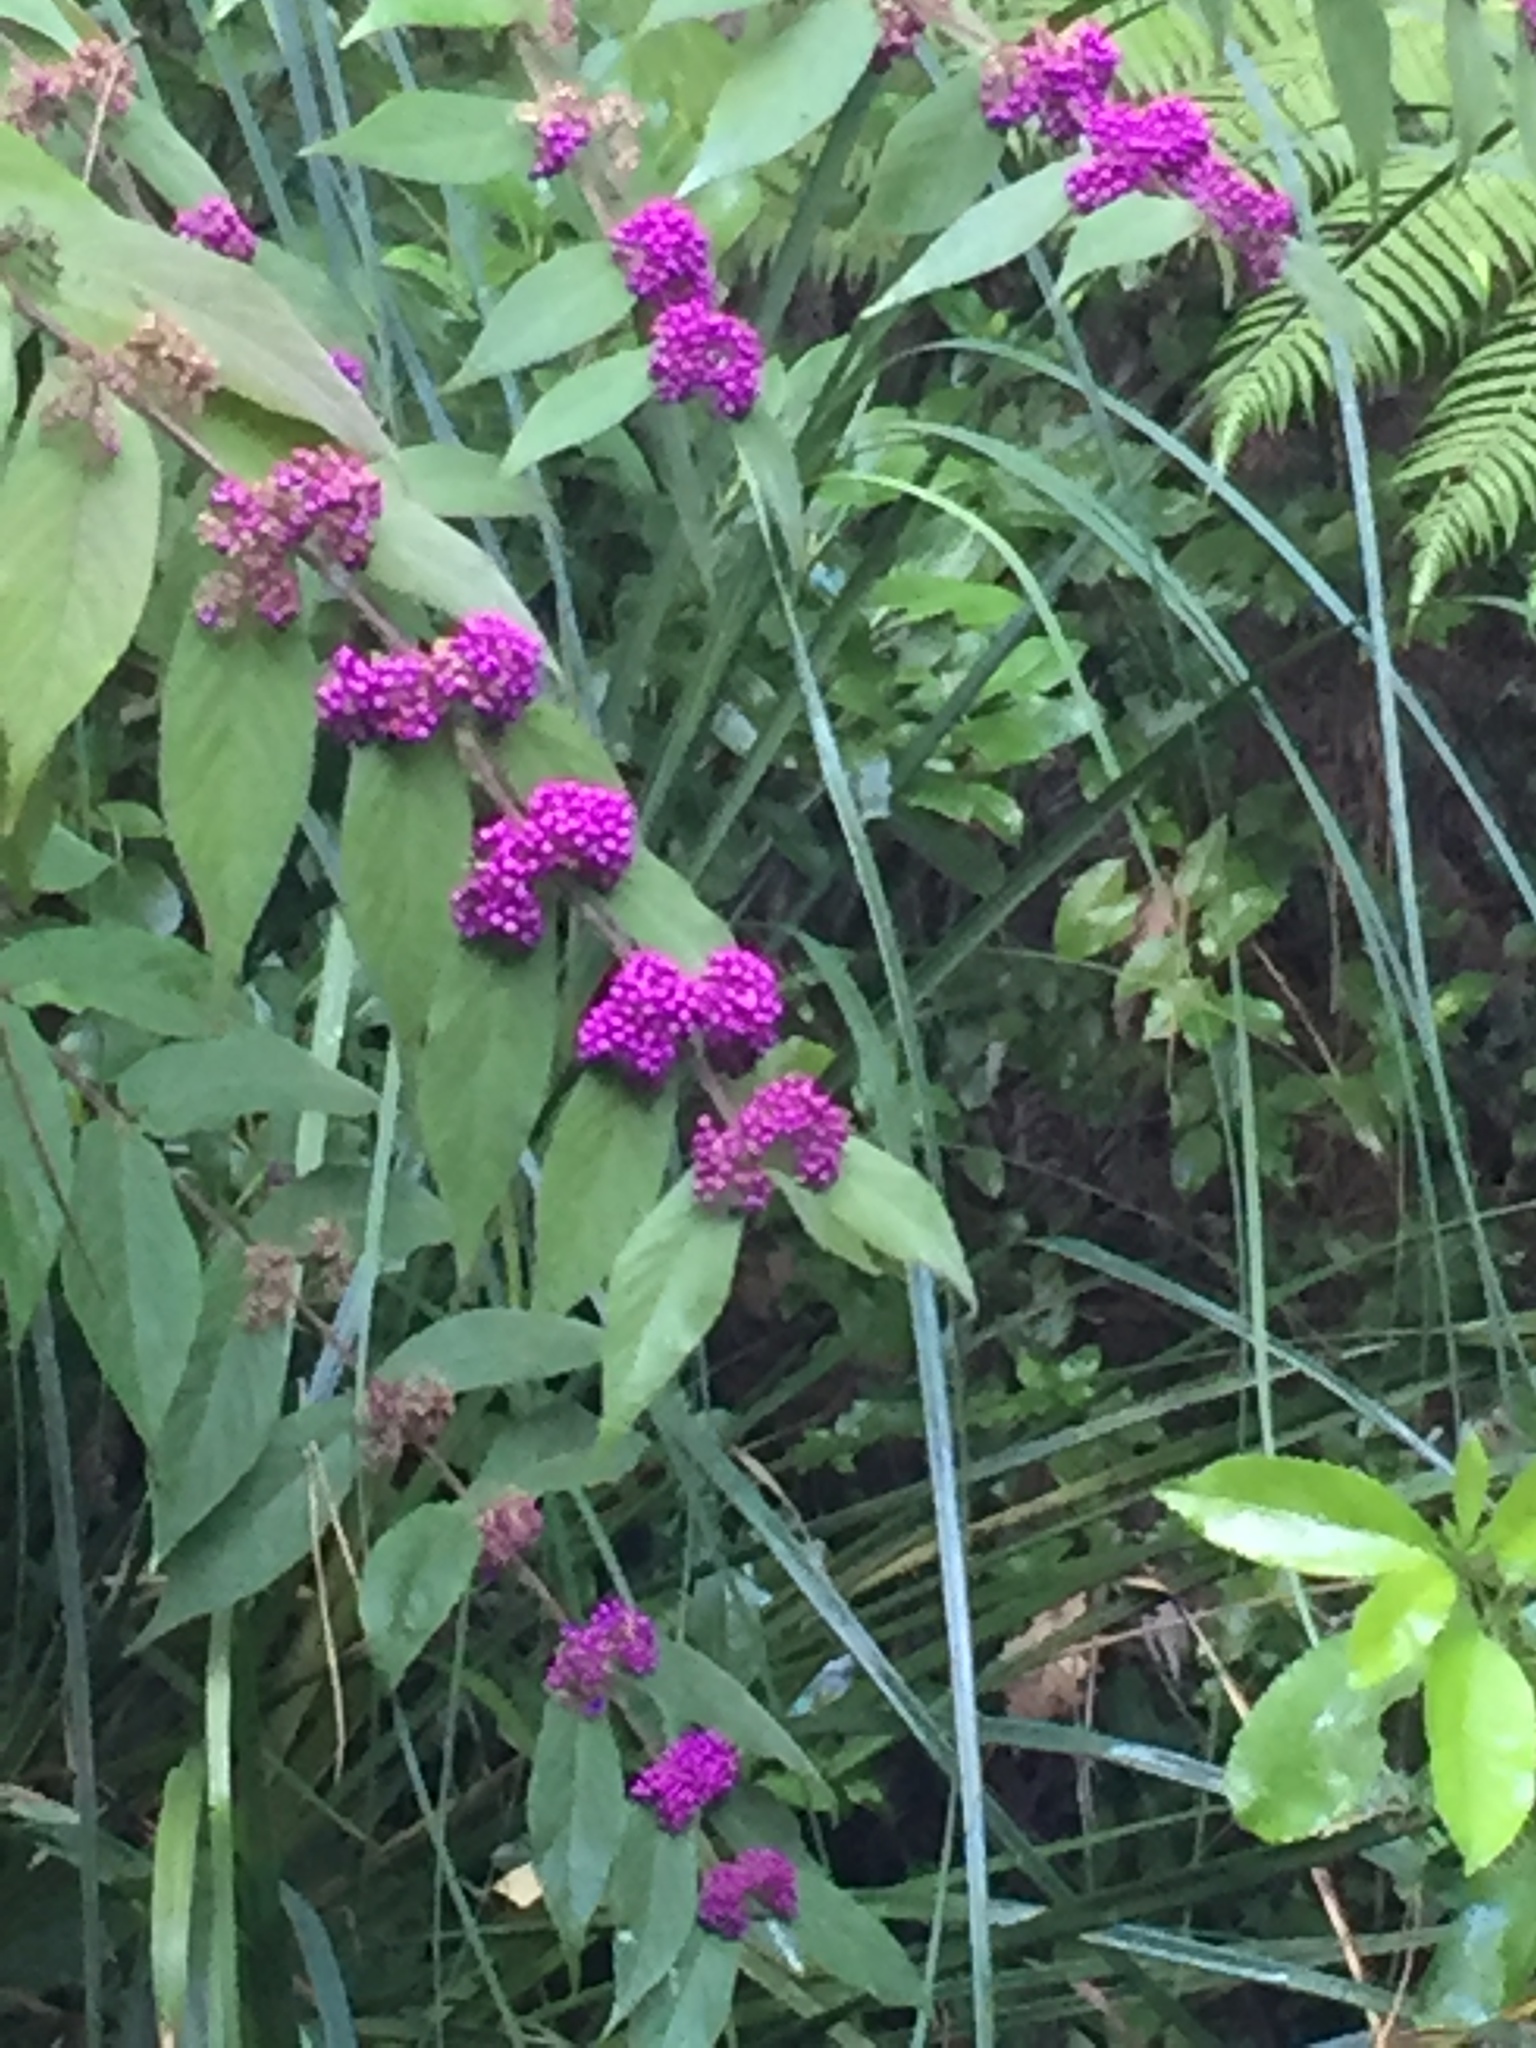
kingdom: Plantae
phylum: Tracheophyta
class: Magnoliopsida
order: Lamiales
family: Lamiaceae
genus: Callicarpa
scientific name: Callicarpa rubella
